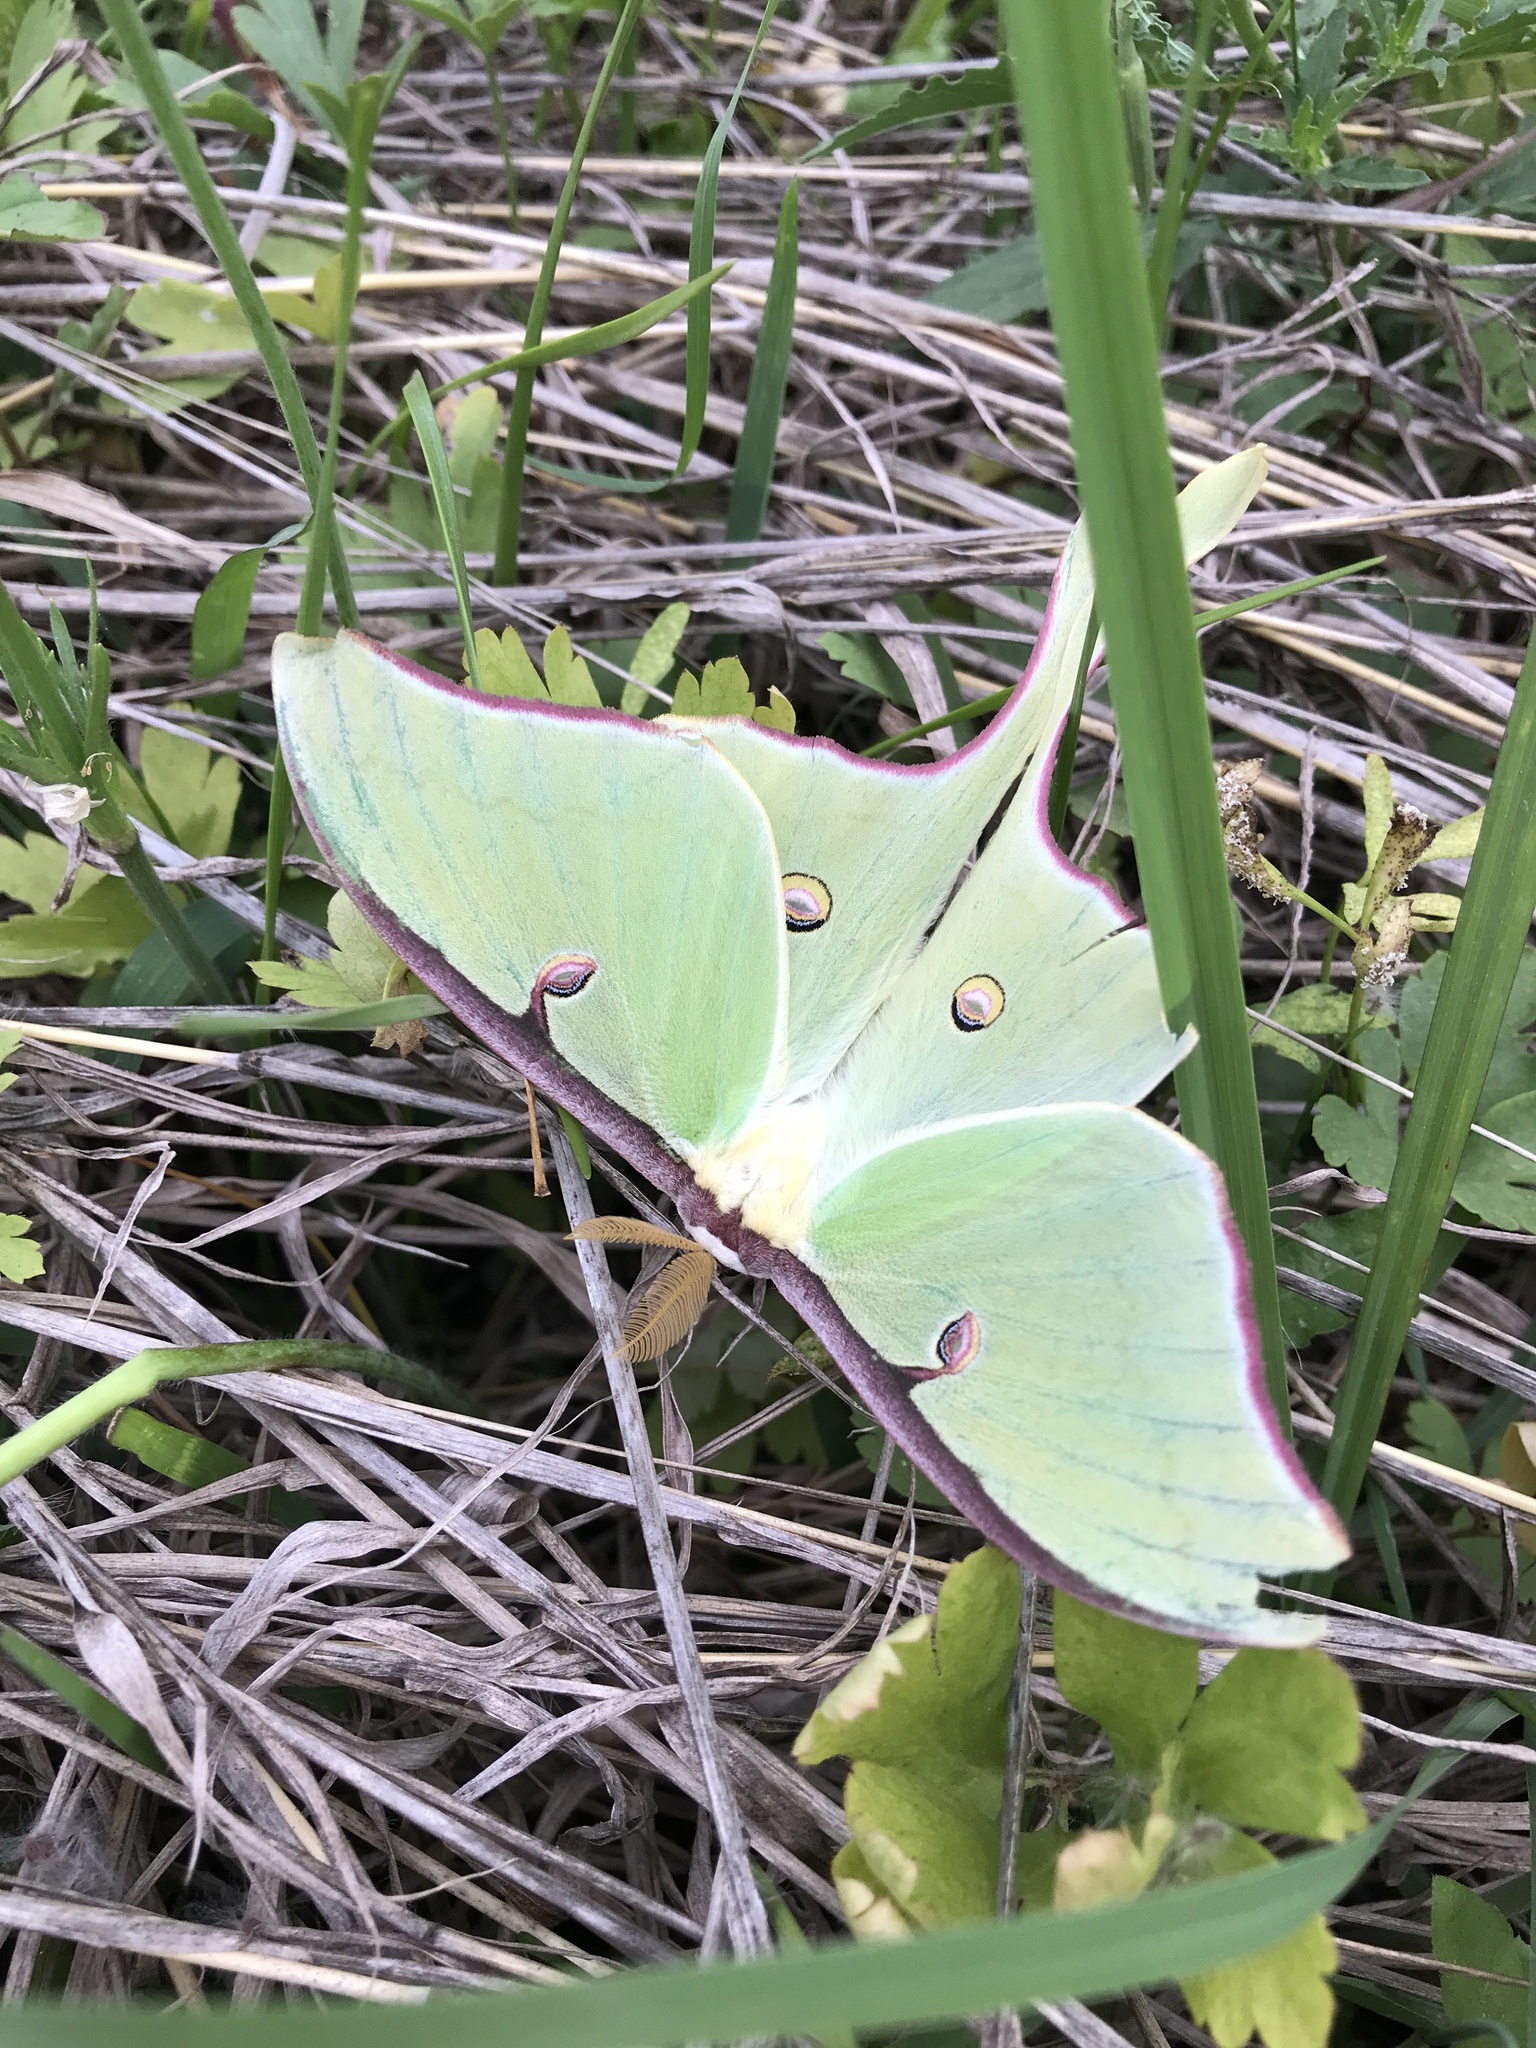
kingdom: Animalia
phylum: Arthropoda
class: Insecta
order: Lepidoptera
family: Saturniidae
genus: Actias
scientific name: Actias luna
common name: Luna moth
